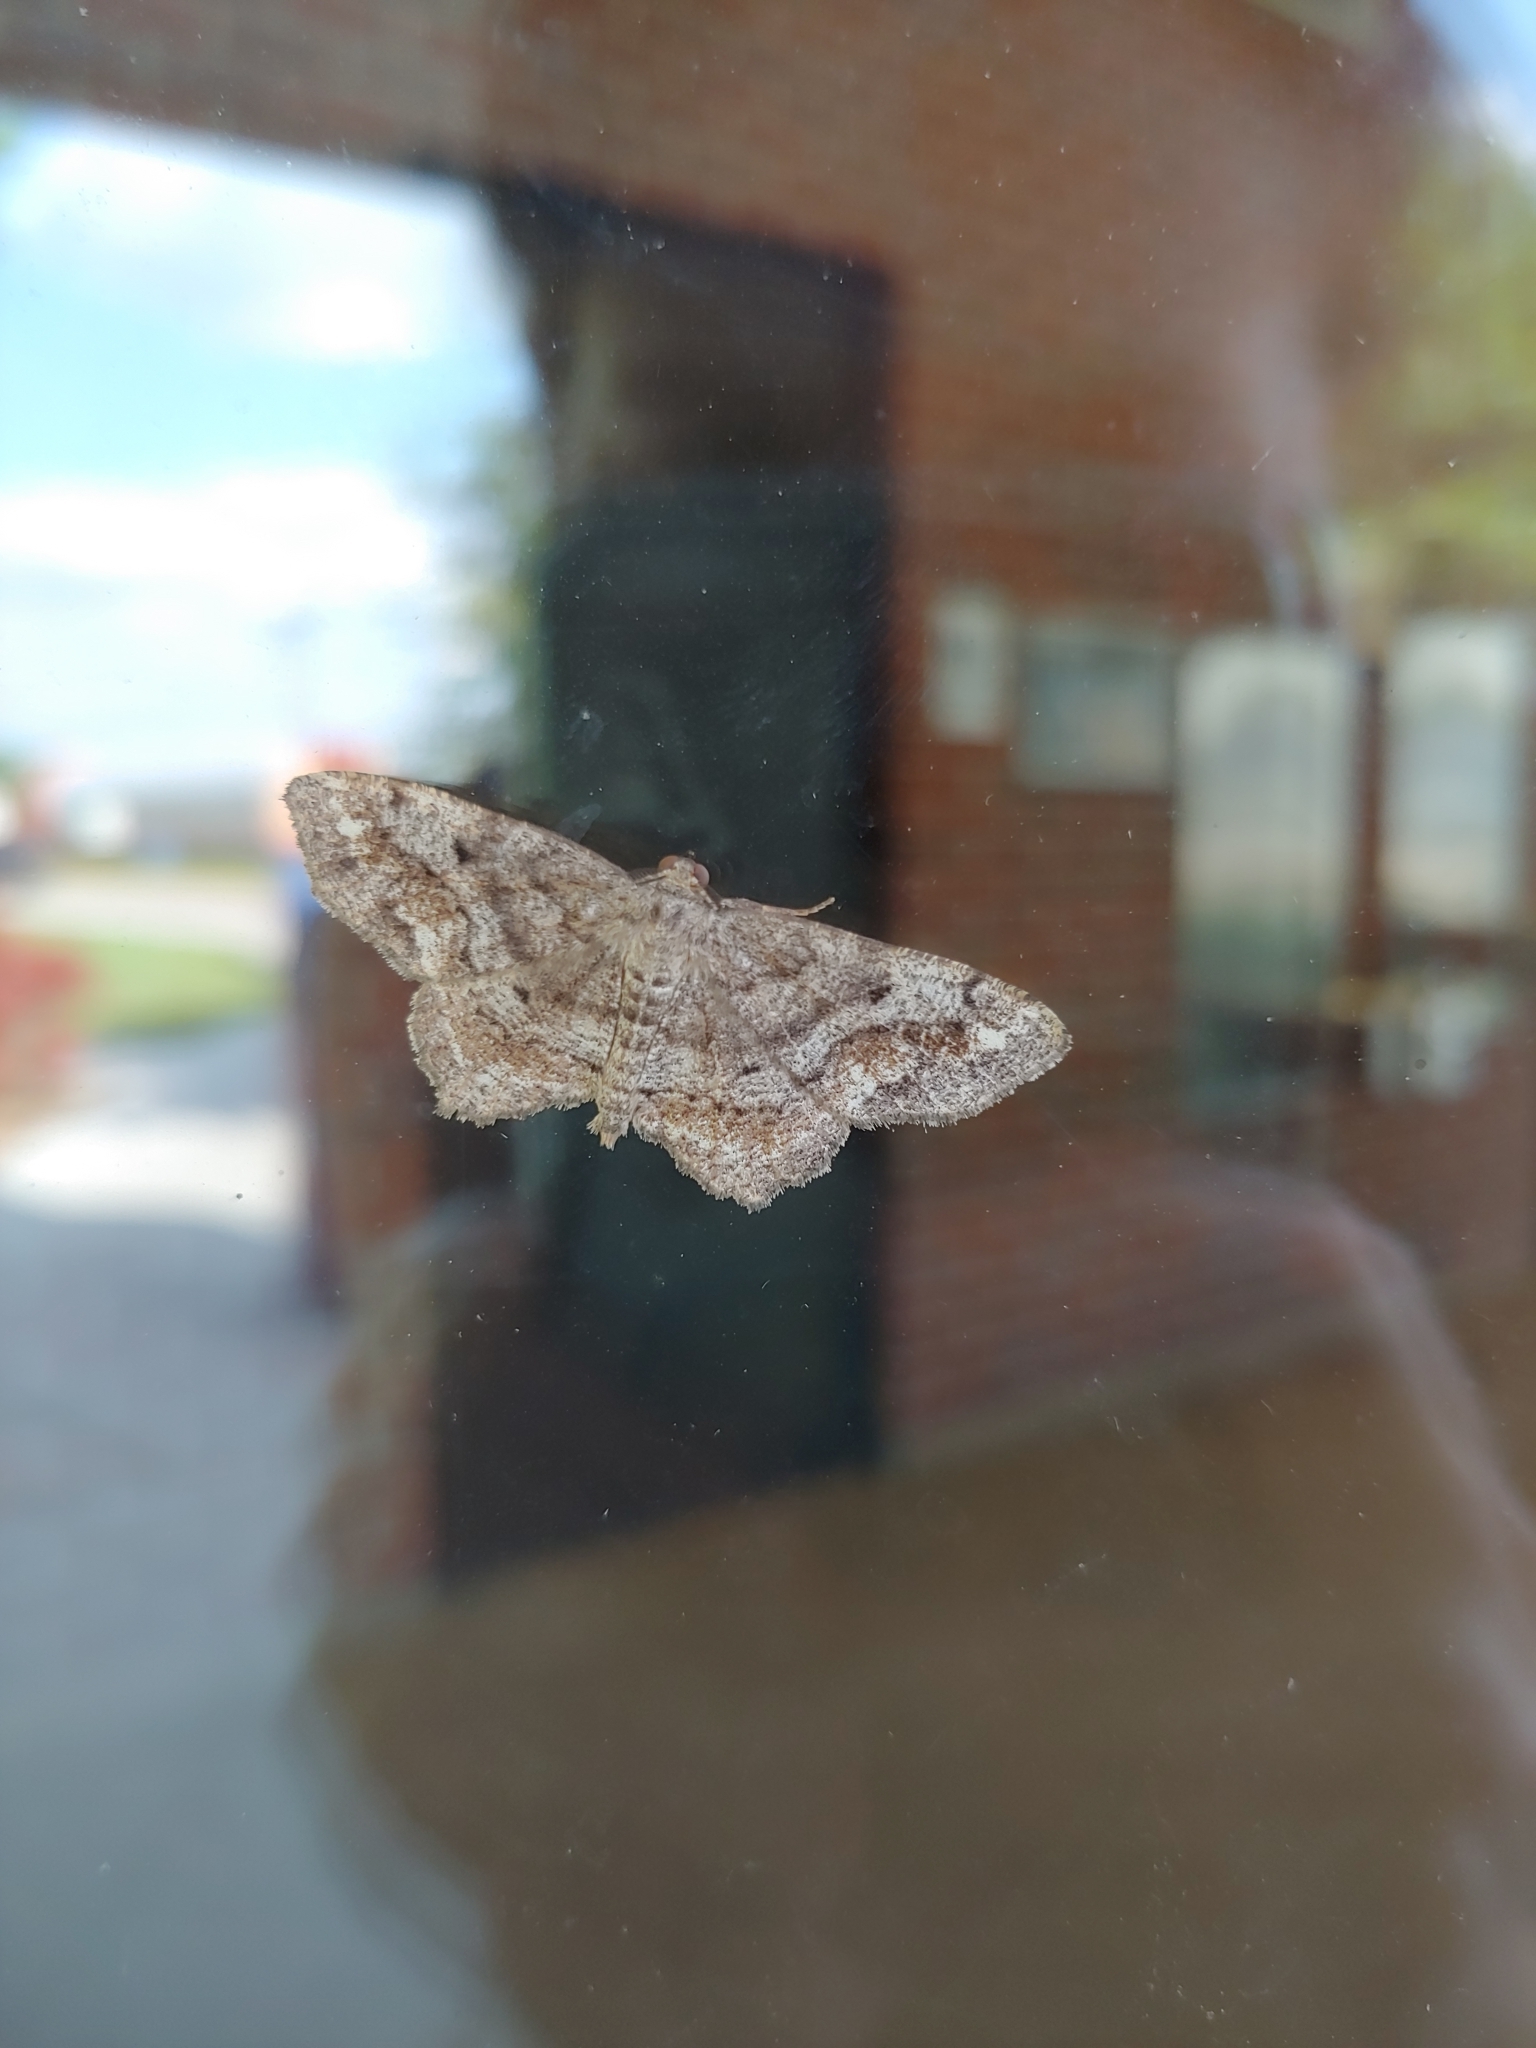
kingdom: Animalia
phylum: Arthropoda
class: Insecta
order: Lepidoptera
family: Geometridae
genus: Hypagyrtis
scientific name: Hypagyrtis unipunctata
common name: One-spotted variant
